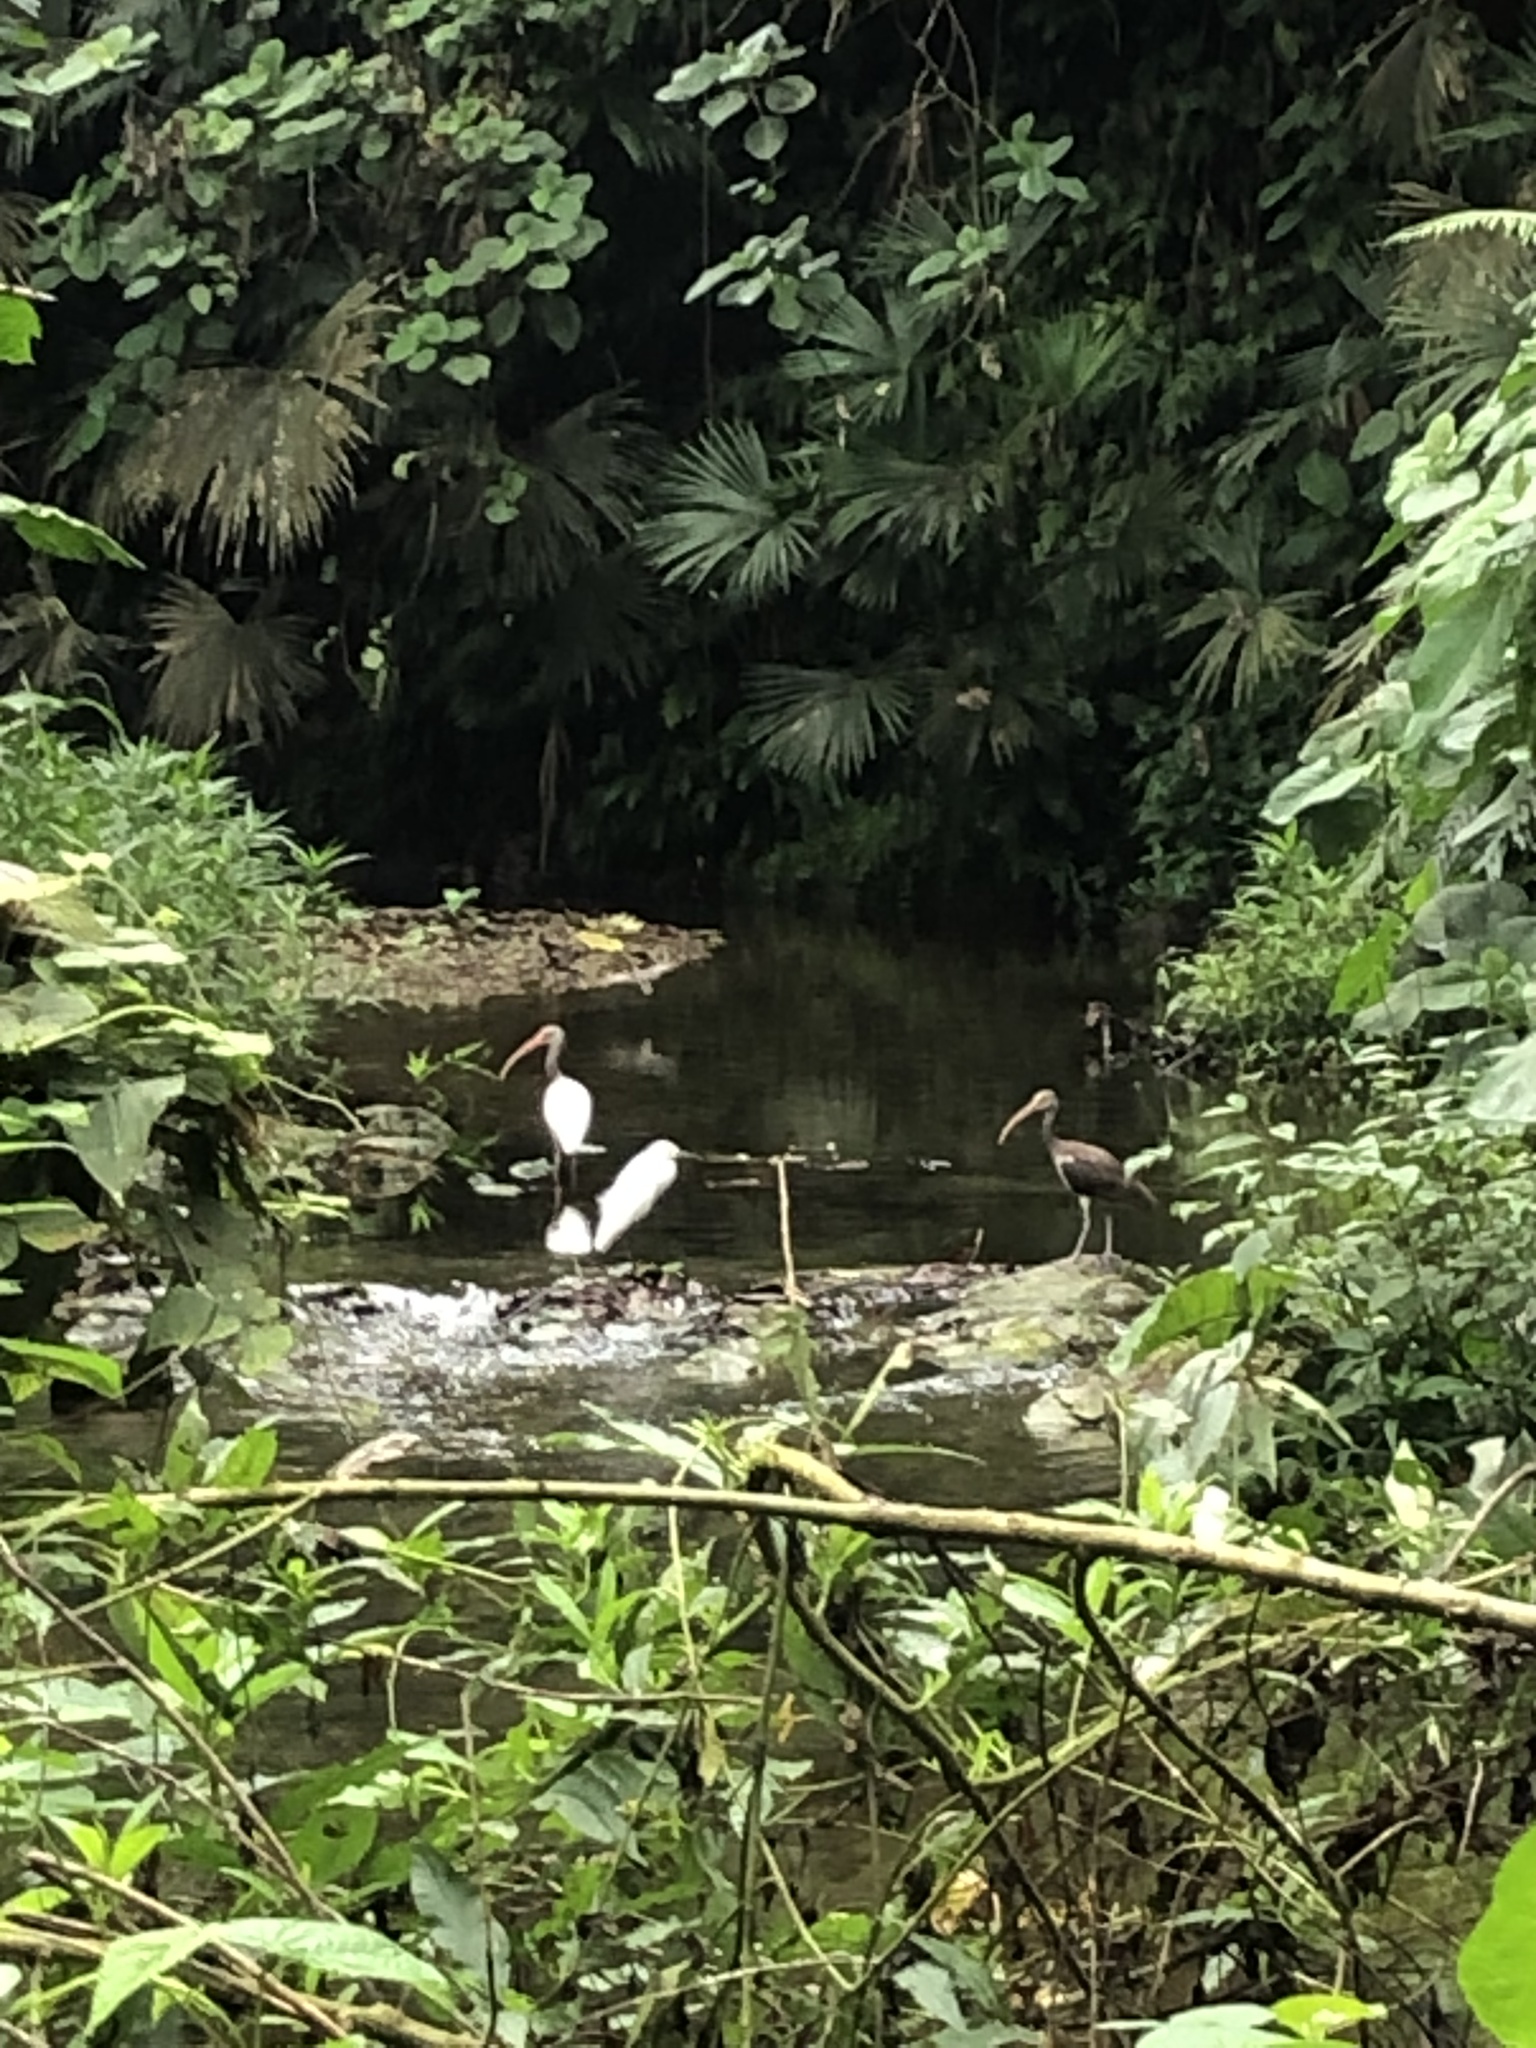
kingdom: Animalia
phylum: Chordata
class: Aves
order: Pelecaniformes
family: Threskiornithidae
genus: Eudocimus
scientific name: Eudocimus albus
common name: White ibis
